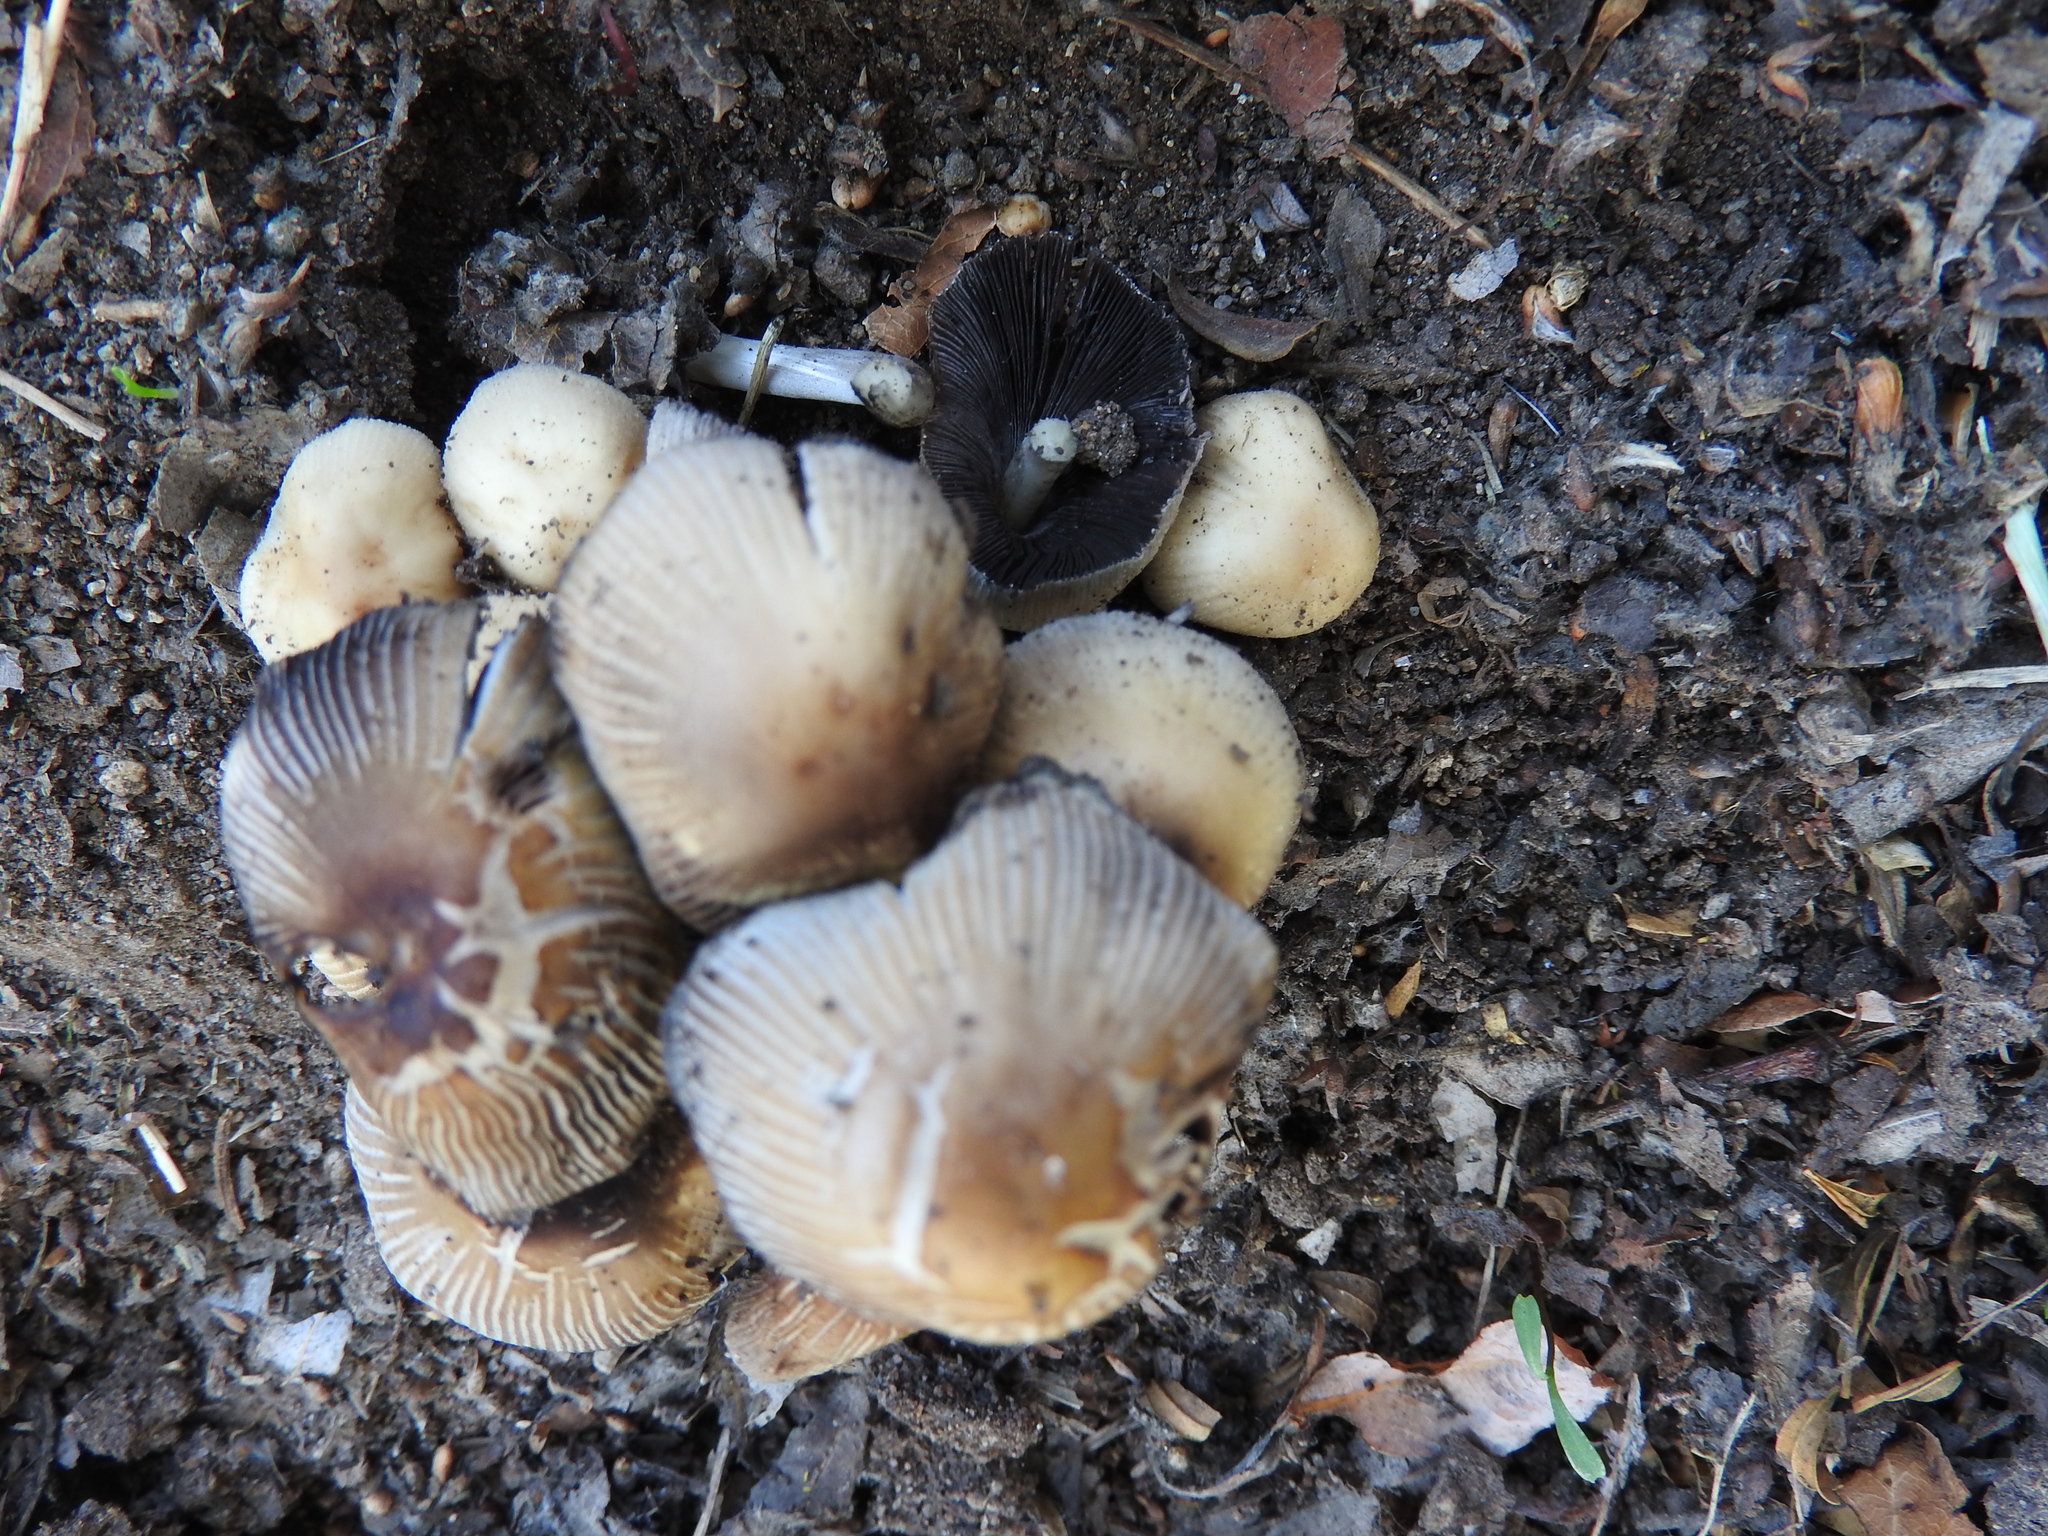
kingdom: Fungi
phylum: Basidiomycota
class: Agaricomycetes
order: Agaricales
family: Psathyrellaceae
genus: Coprinellus
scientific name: Coprinellus micaceus
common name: Glistening ink-cap
